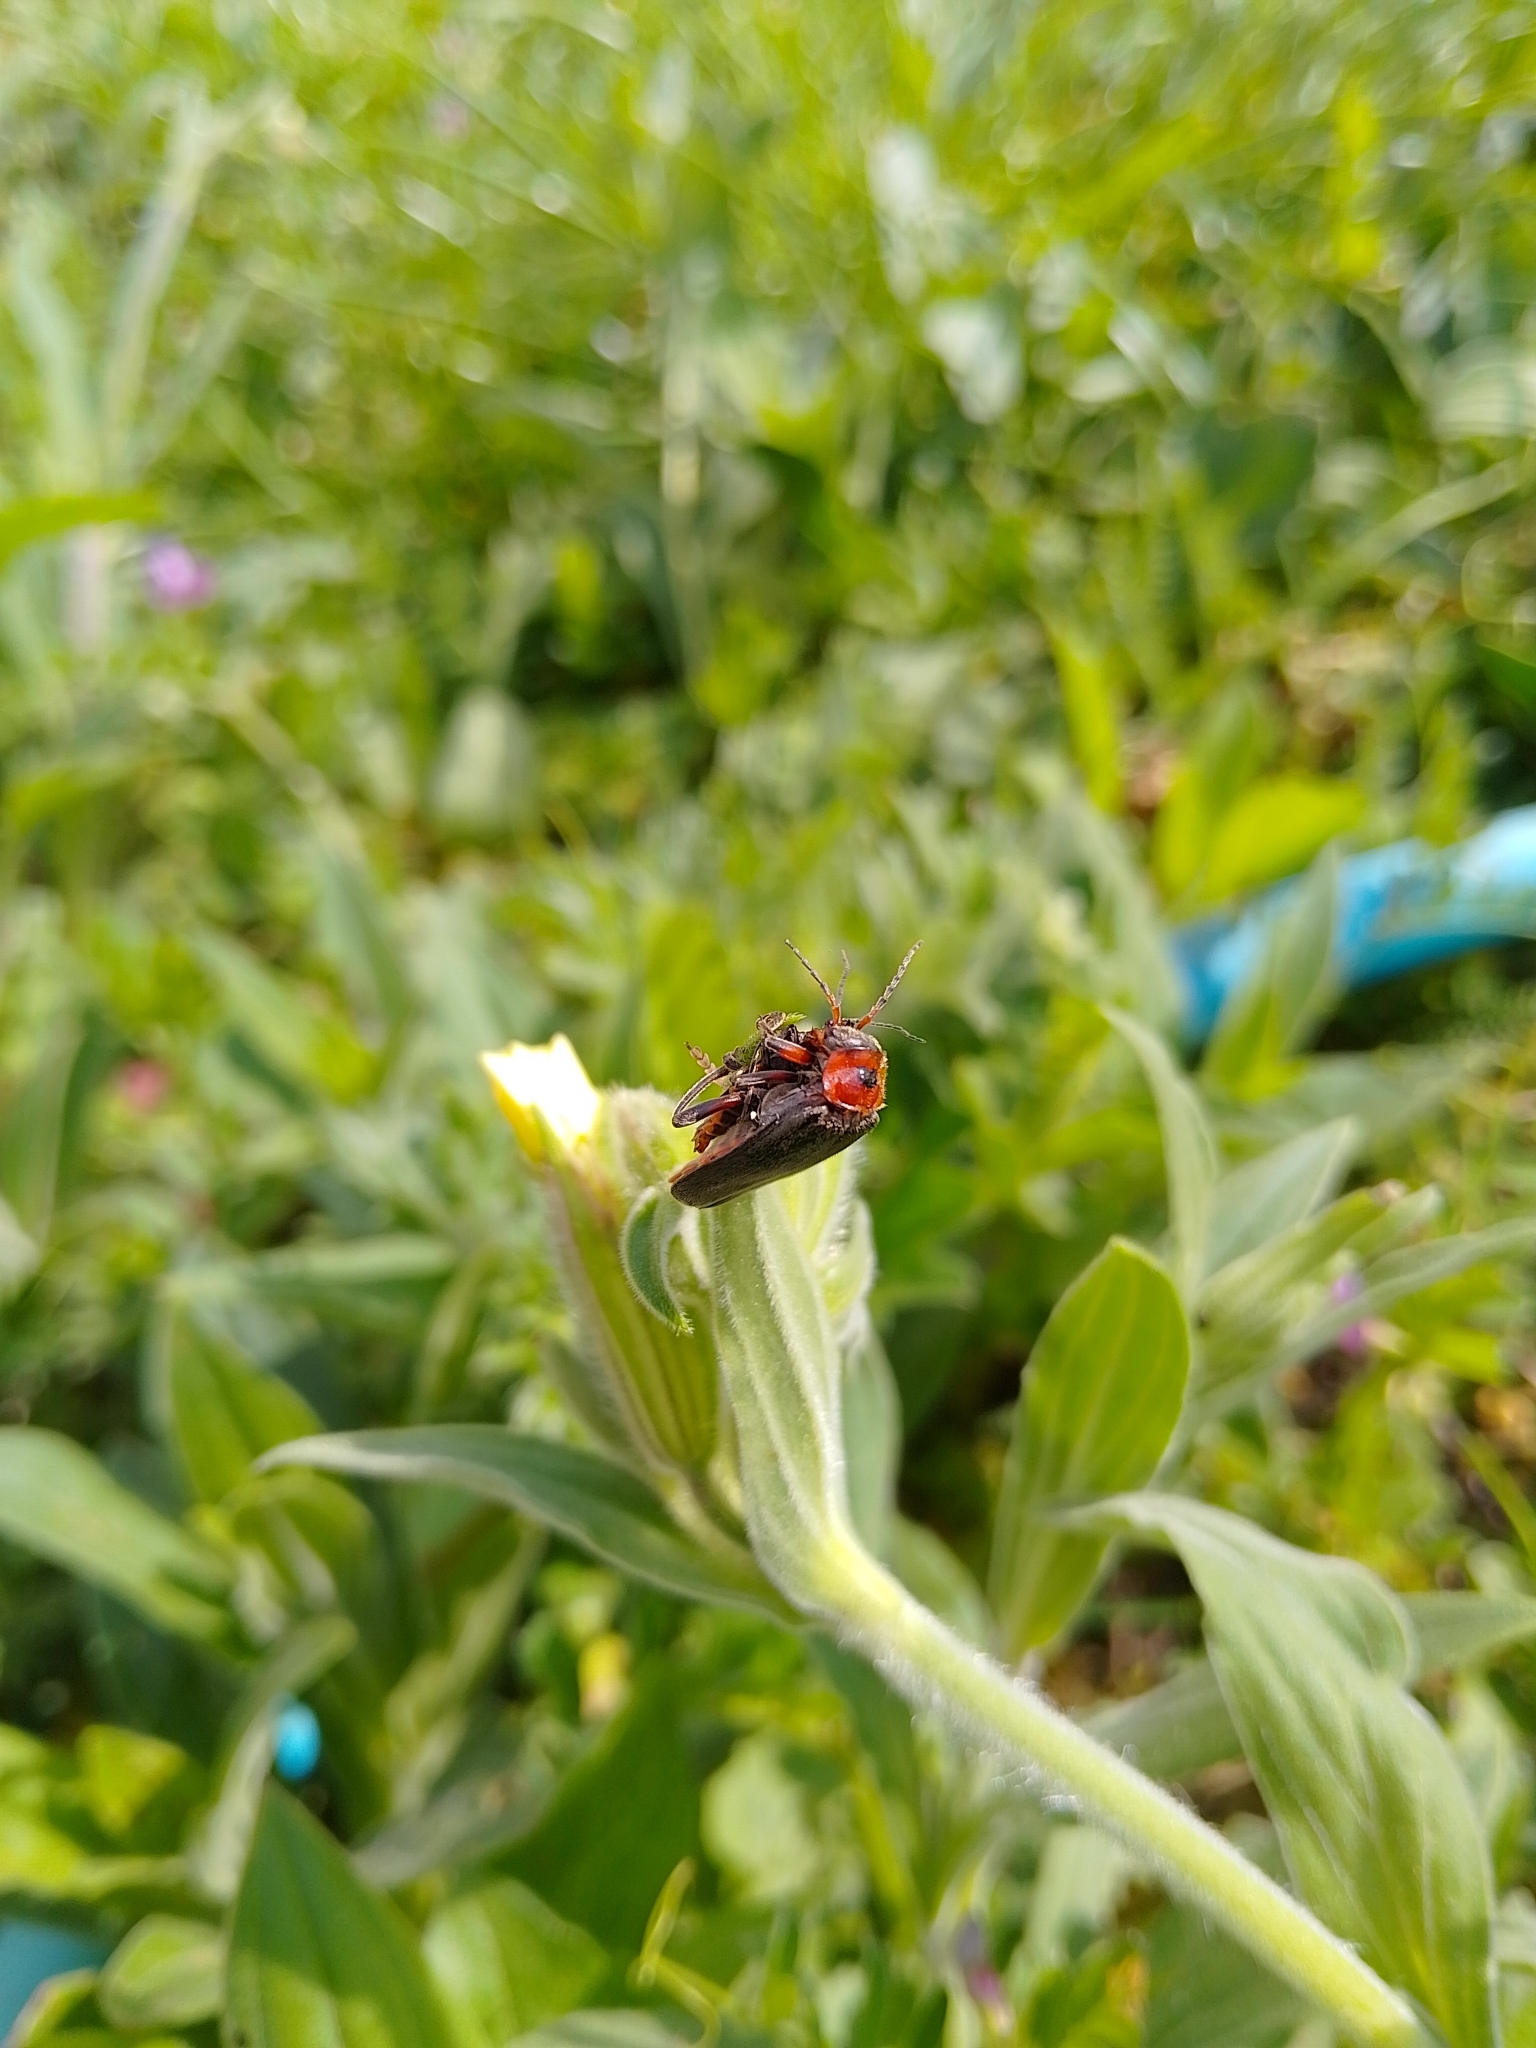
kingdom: Animalia
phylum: Arthropoda
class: Insecta
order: Coleoptera
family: Cantharidae
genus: Cantharis
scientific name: Cantharis rustica
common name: Soldier beetle
